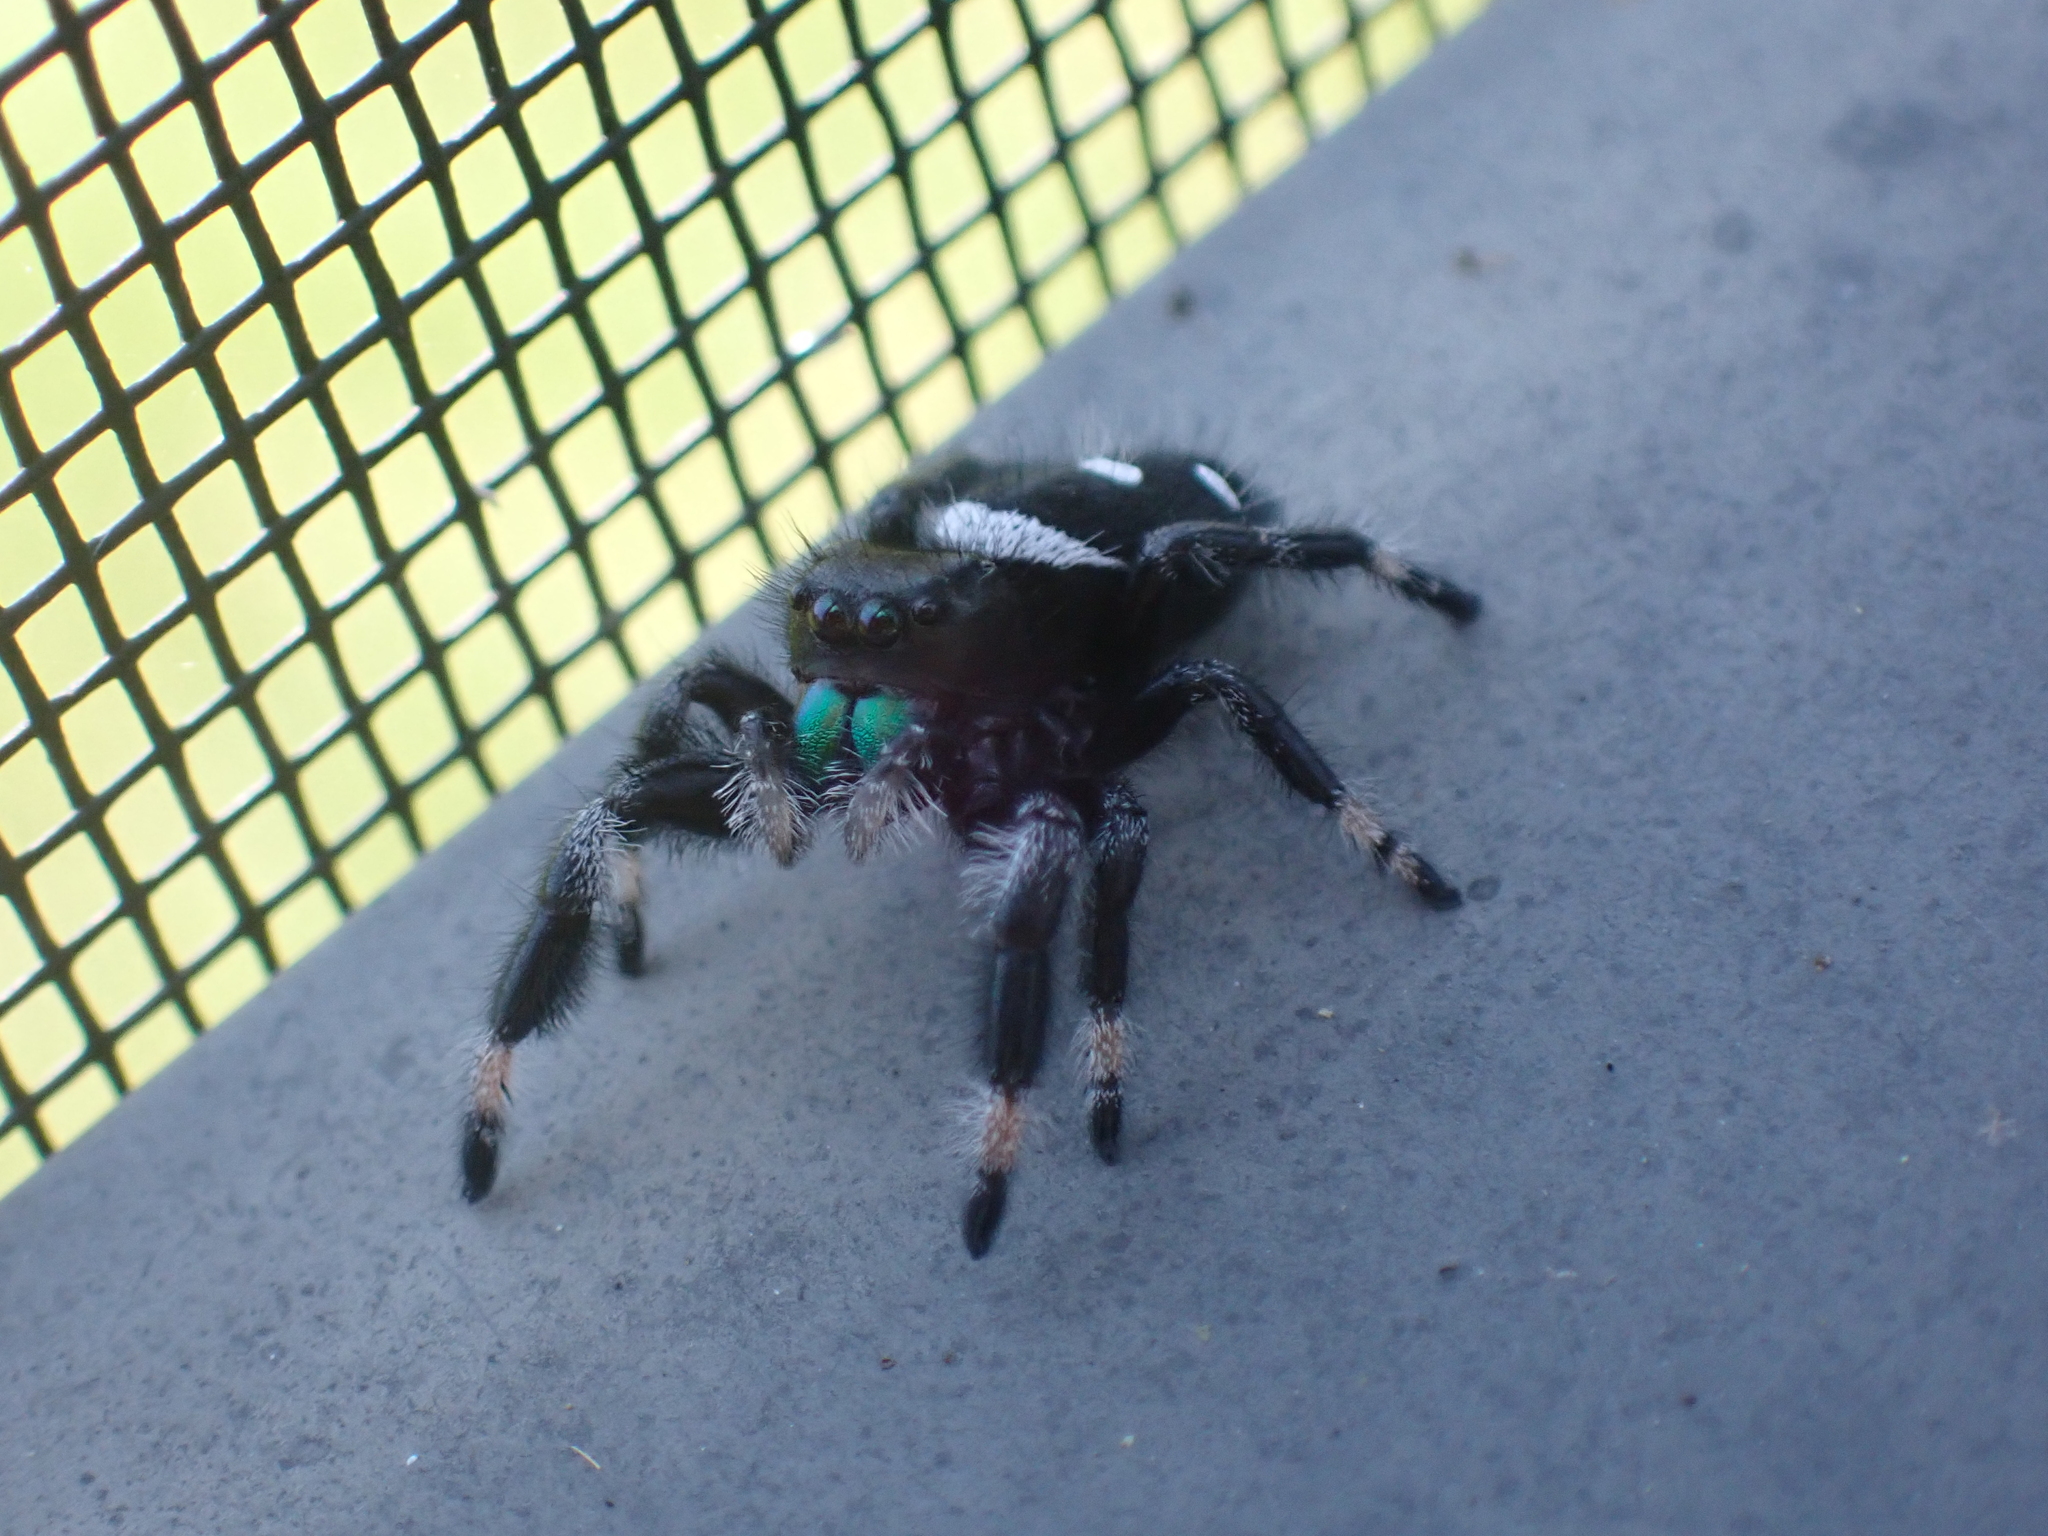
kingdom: Animalia
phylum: Arthropoda
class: Arachnida
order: Araneae
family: Salticidae
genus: Phidippus
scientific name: Phidippus regius
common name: Regal jumper
